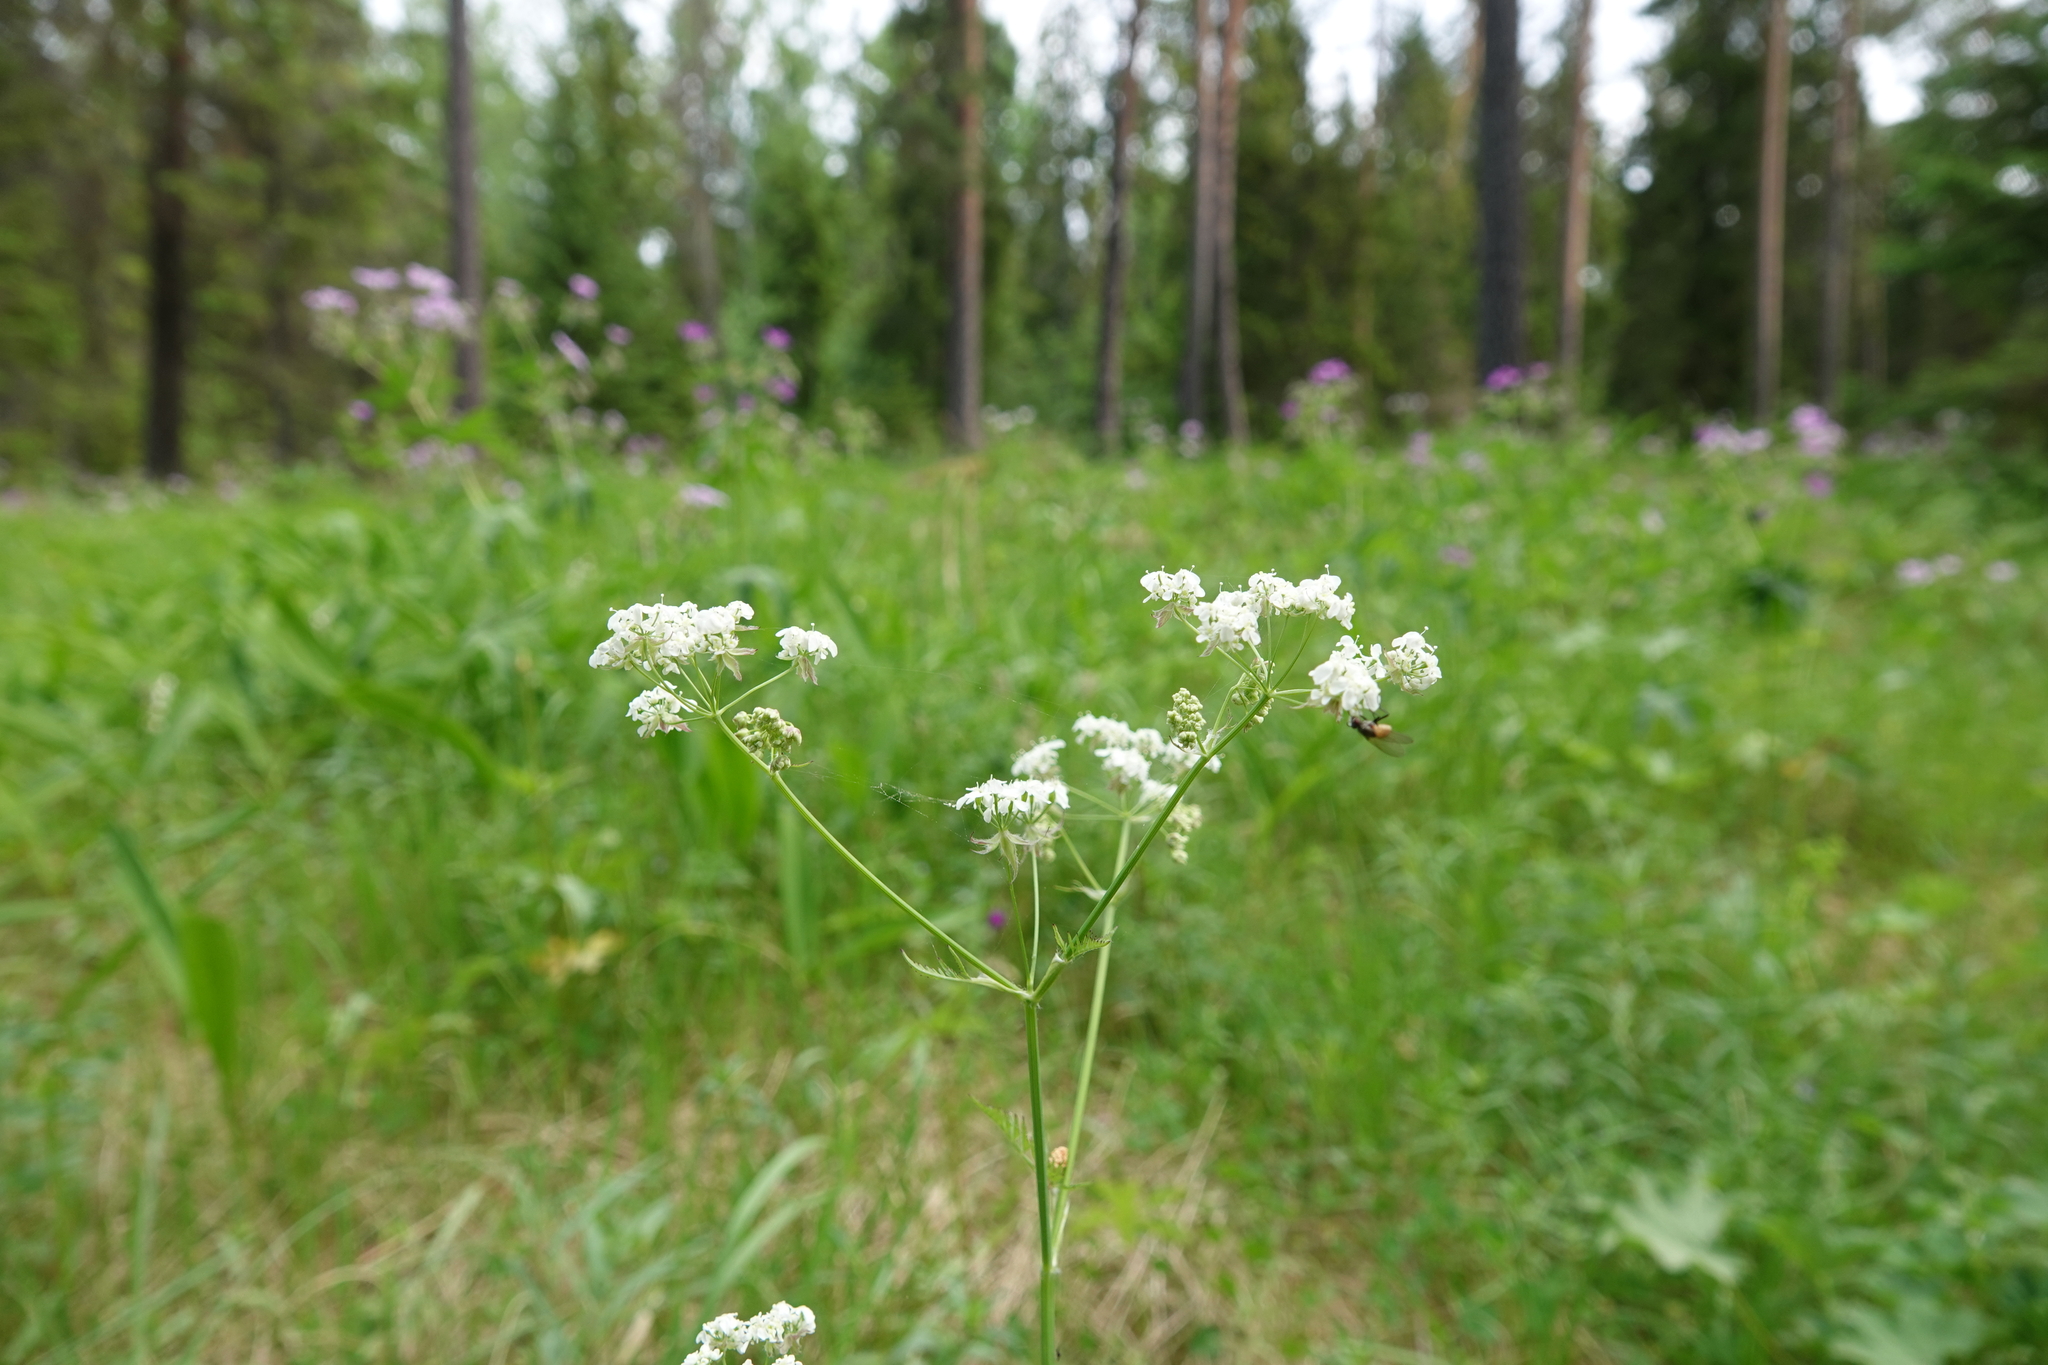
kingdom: Plantae
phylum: Tracheophyta
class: Magnoliopsida
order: Apiales
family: Apiaceae
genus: Anthriscus
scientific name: Anthriscus sylvestris
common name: Cow parsley
